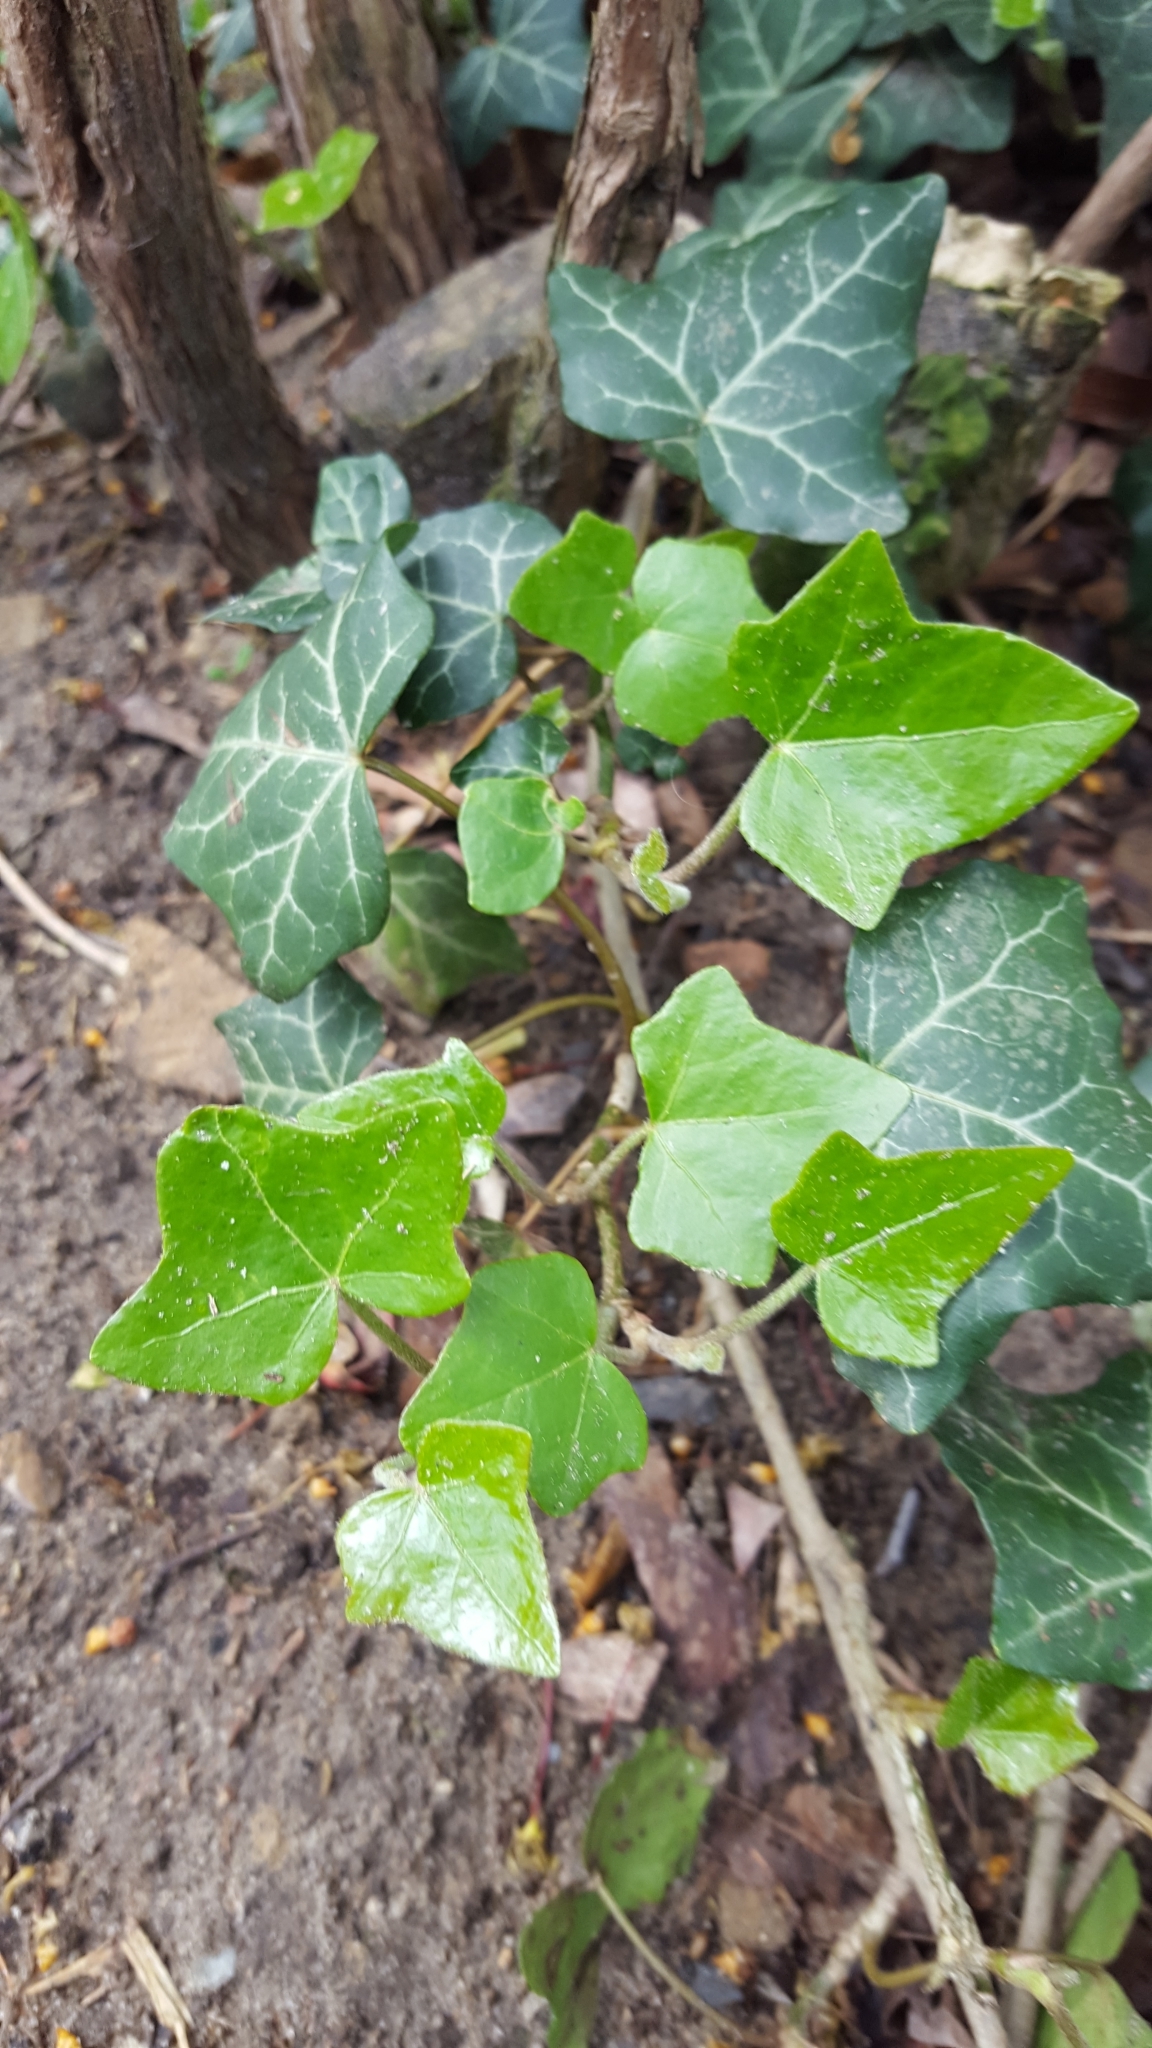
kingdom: Plantae
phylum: Tracheophyta
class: Magnoliopsida
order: Apiales
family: Araliaceae
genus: Hedera
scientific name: Hedera helix
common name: Ivy
